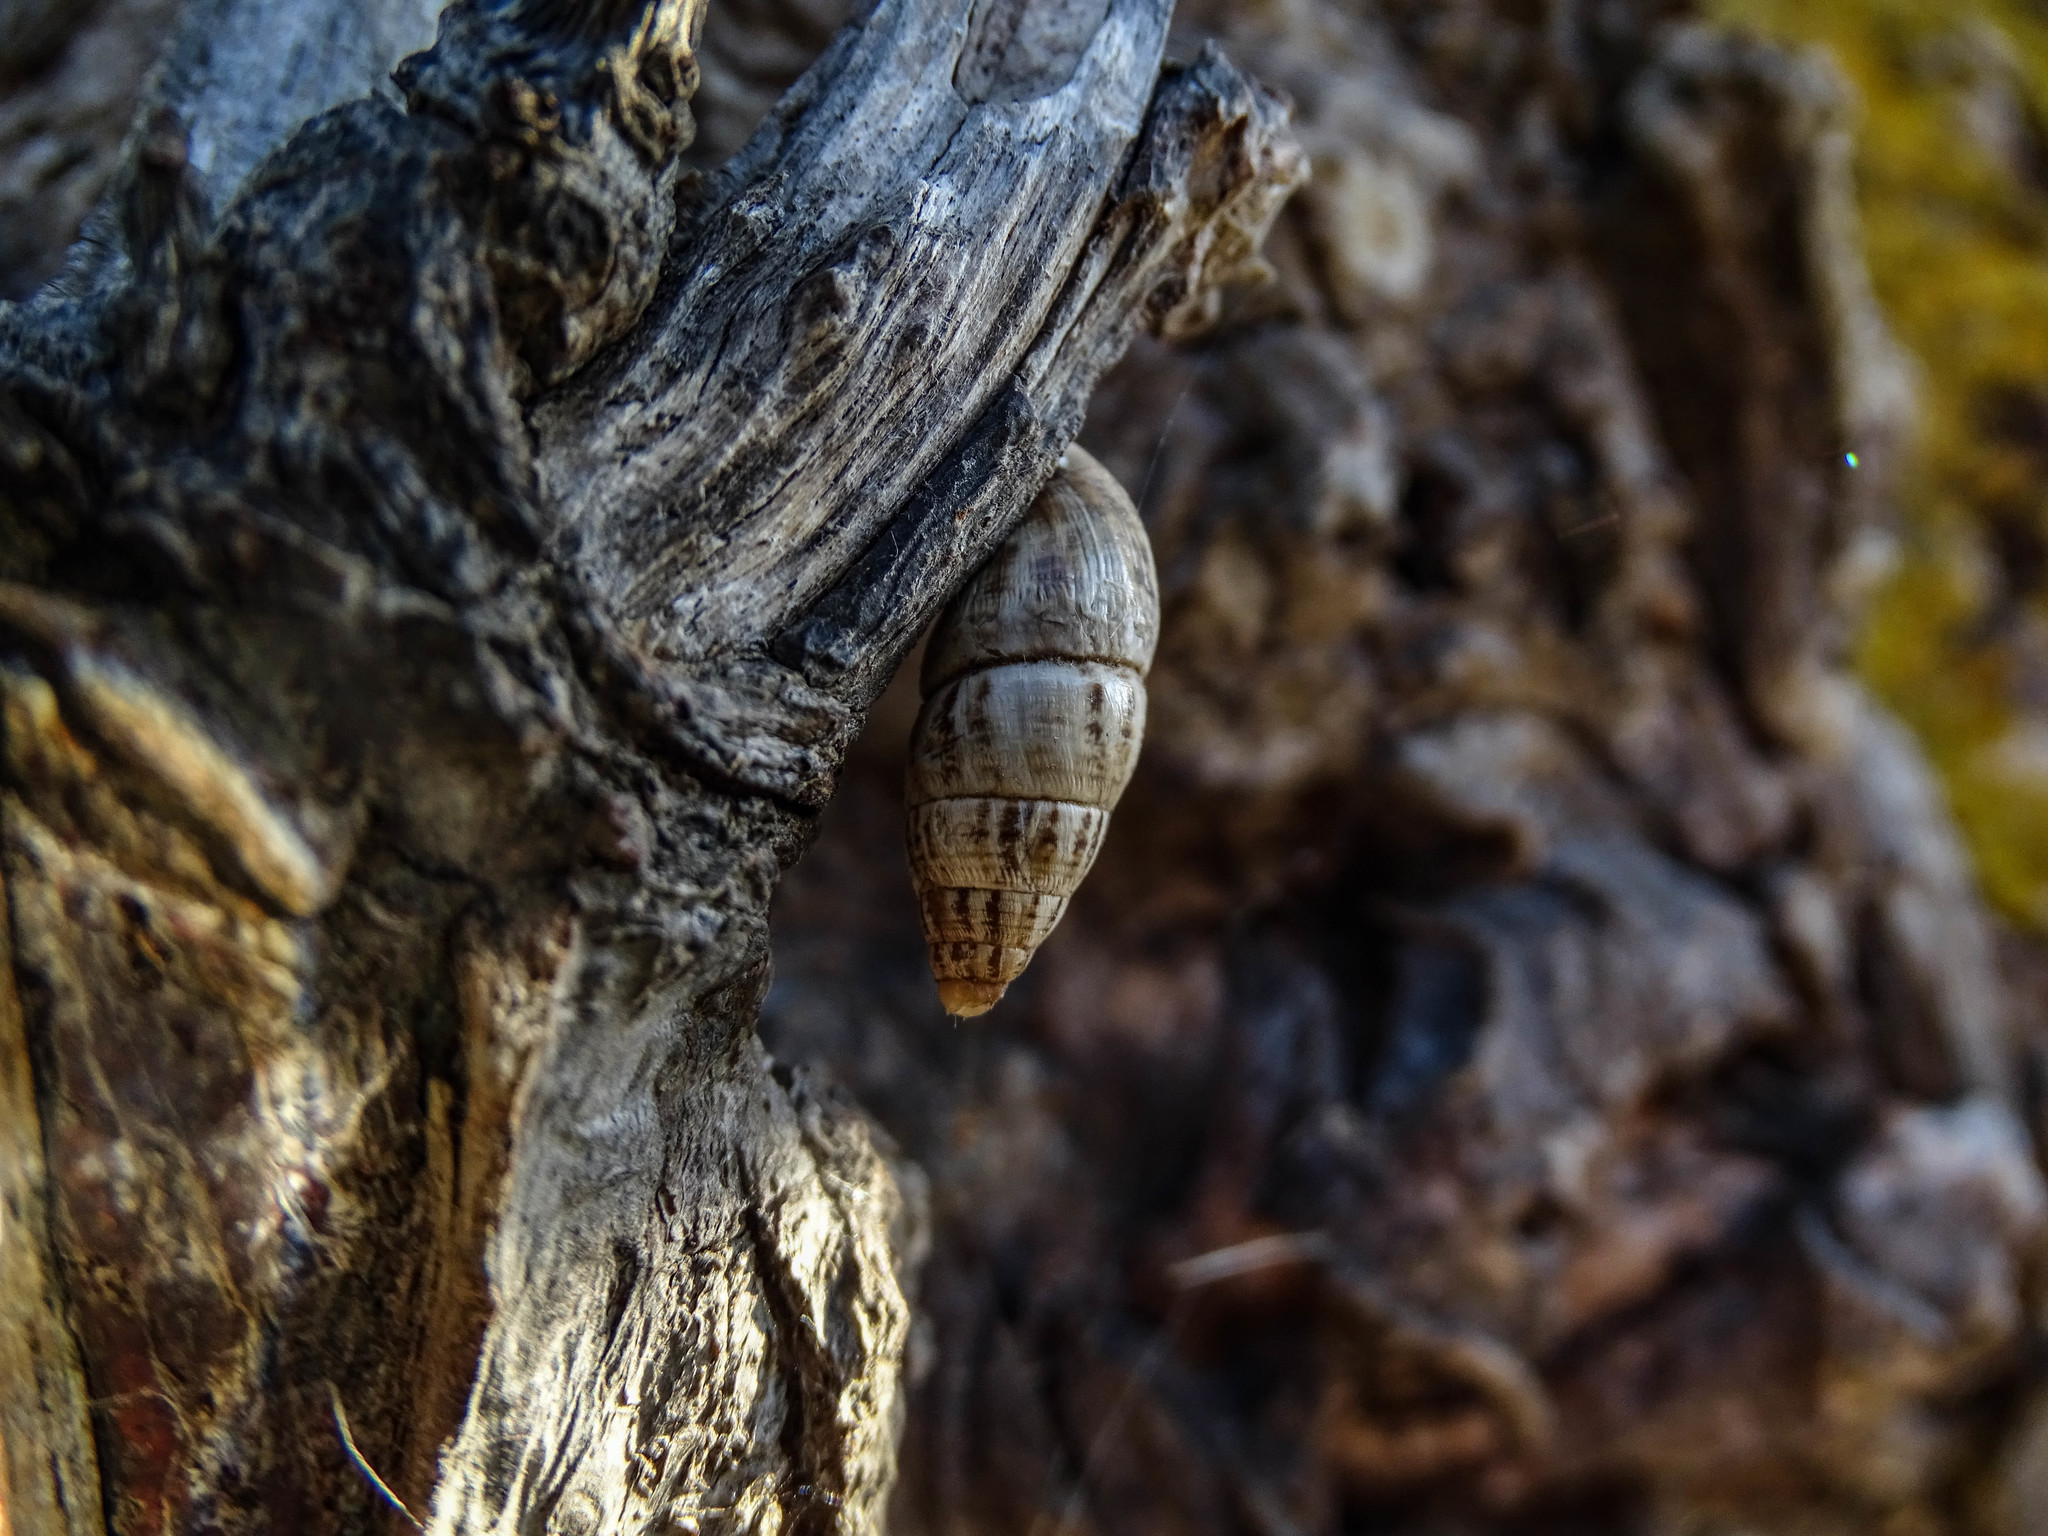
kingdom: Animalia
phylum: Mollusca
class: Gastropoda
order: Stylommatophora
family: Enidae
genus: Zebrina
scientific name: Zebrina fasciolata
